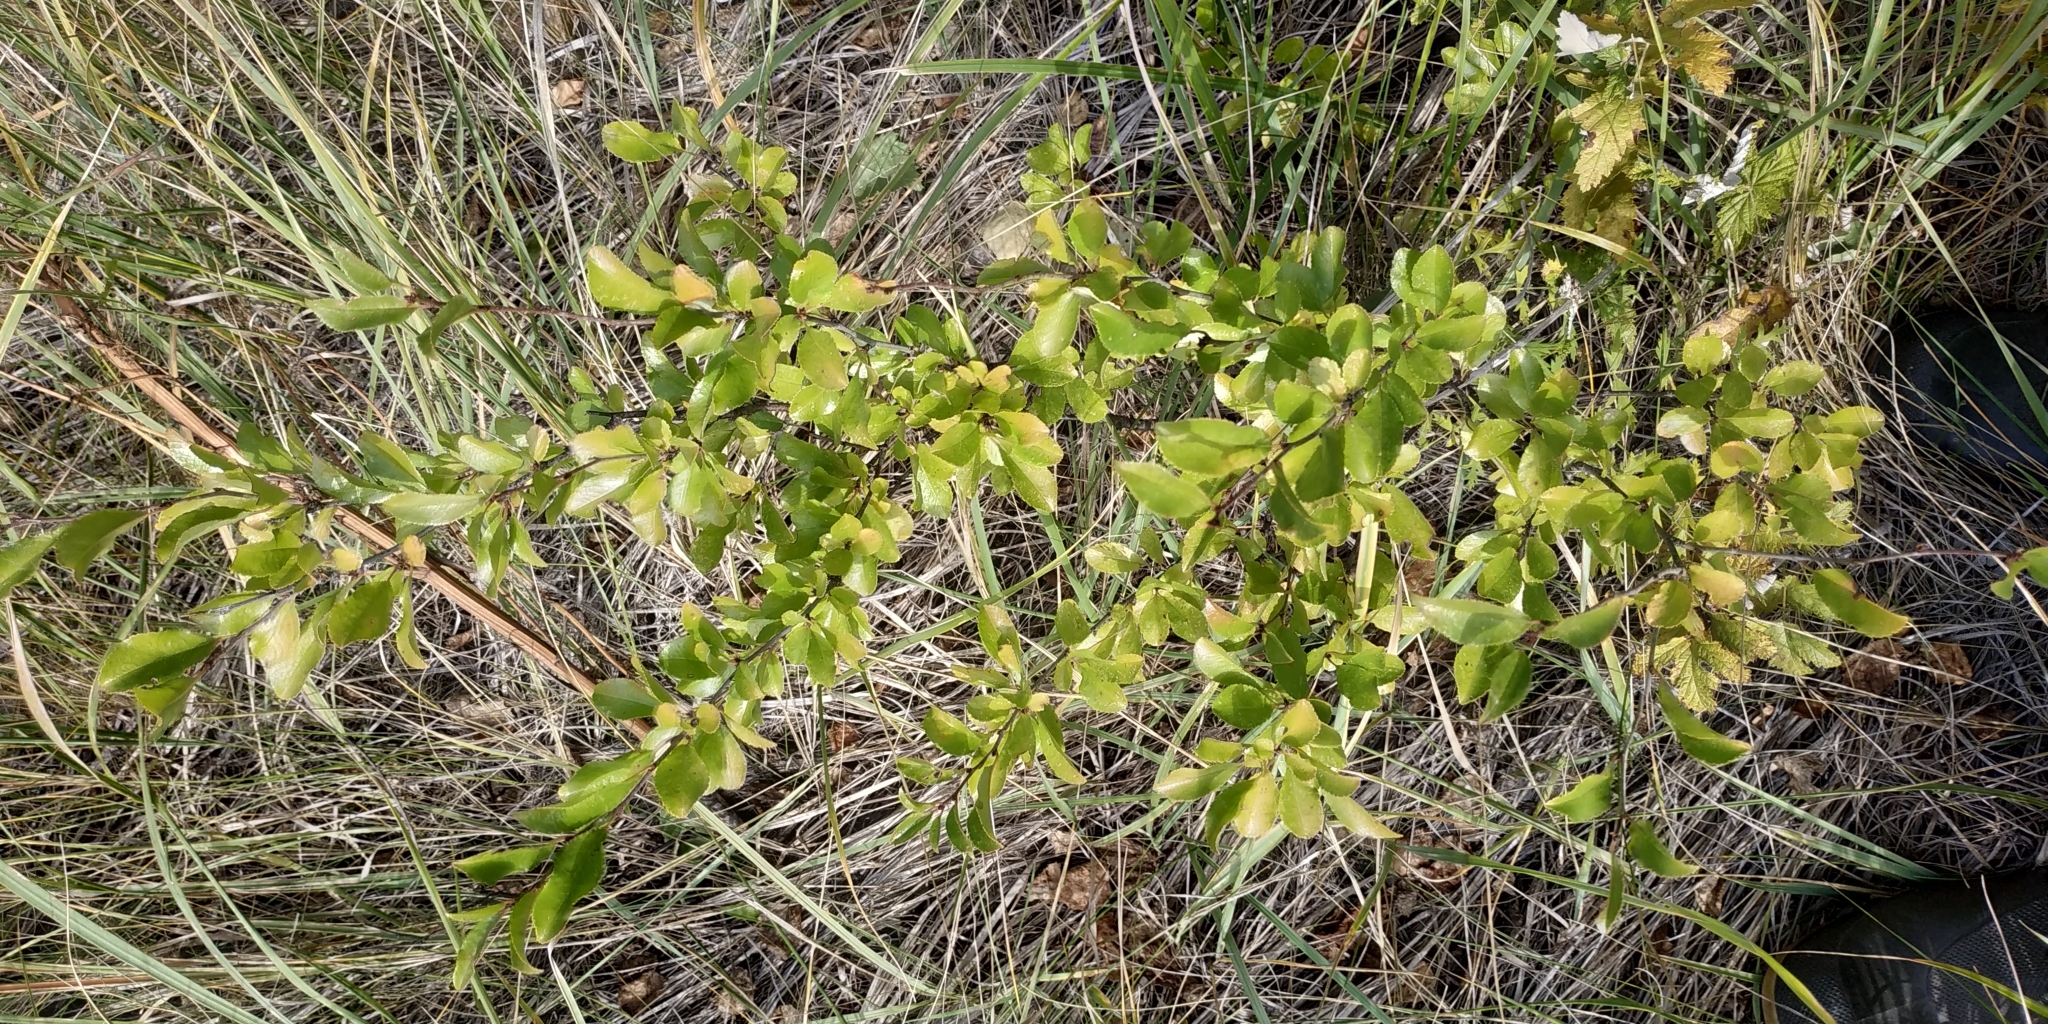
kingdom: Plantae
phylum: Tracheophyta
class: Magnoliopsida
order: Rosales
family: Rosaceae
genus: Prunus
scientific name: Prunus fruticosa
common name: European dwarf cherry
